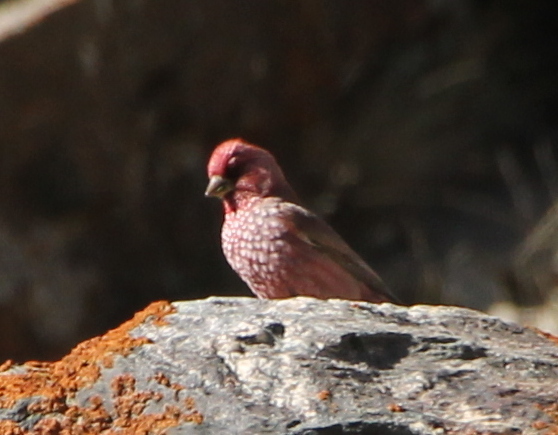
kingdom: Animalia
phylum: Chordata
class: Aves
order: Passeriformes
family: Fringillidae
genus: Carpodacus
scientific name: Carpodacus rubicilla
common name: Great rosefinch
